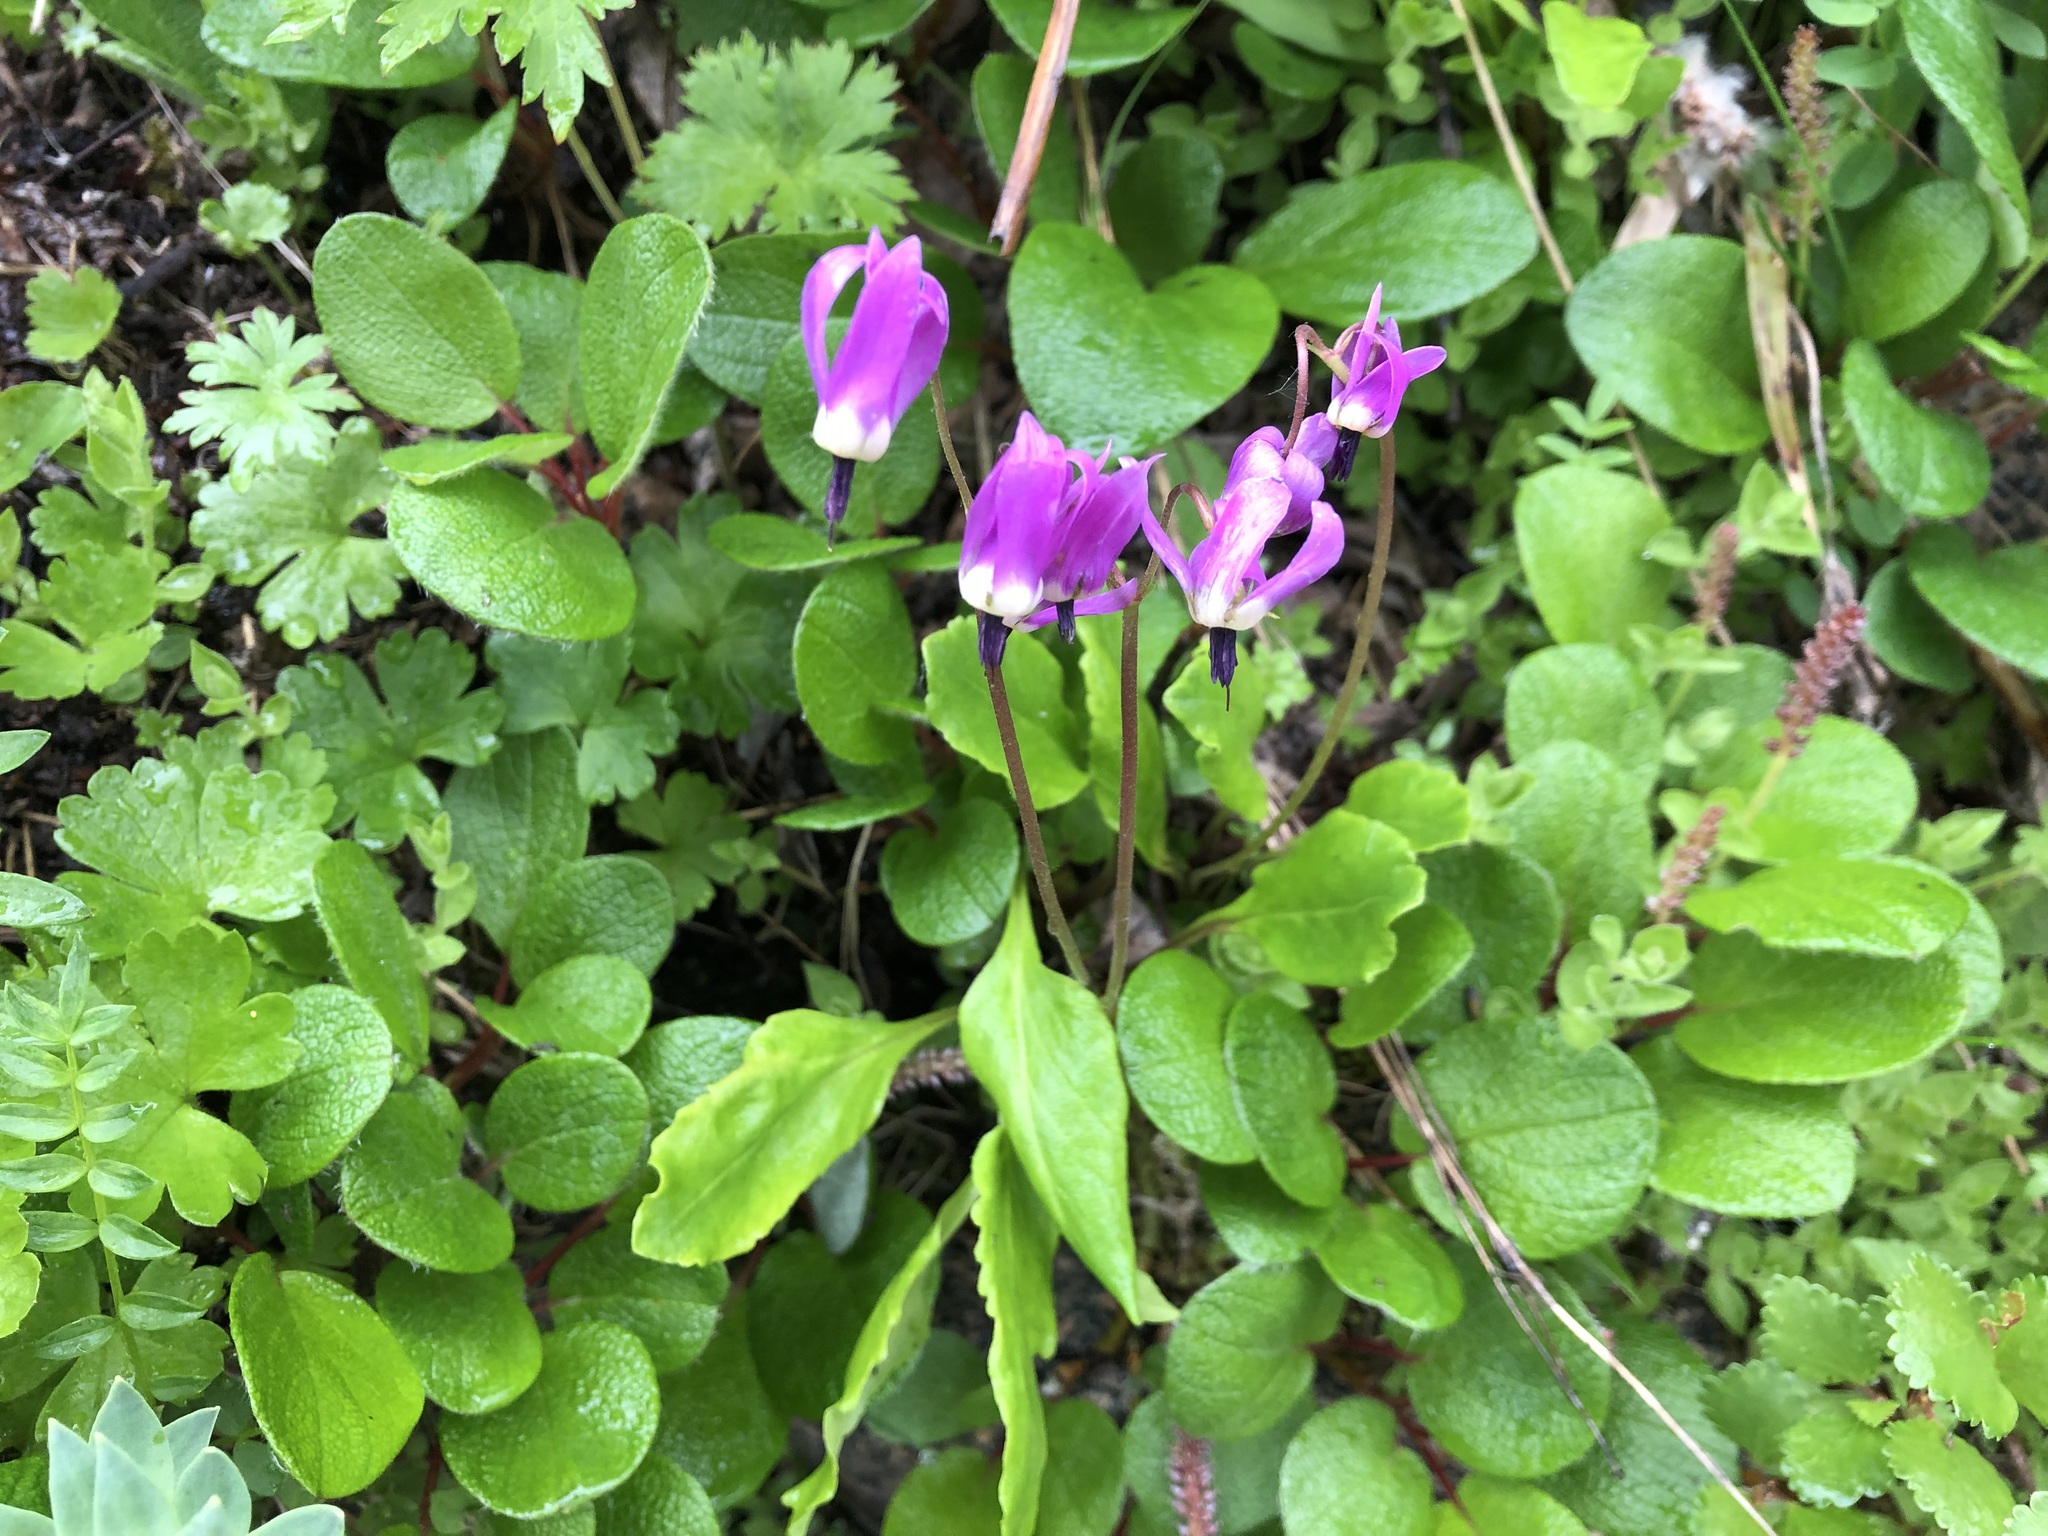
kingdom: Plantae
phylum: Tracheophyta
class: Magnoliopsida
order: Ericales
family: Primulaceae
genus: Dodecatheon
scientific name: Dodecatheon frigidum
